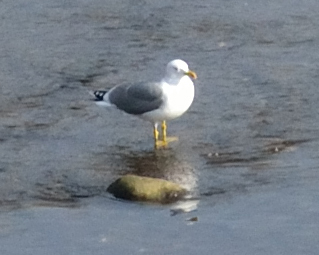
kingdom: Animalia
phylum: Chordata
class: Aves
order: Charadriiformes
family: Laridae
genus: Larus
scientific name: Larus michahellis
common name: Yellow-legged gull
